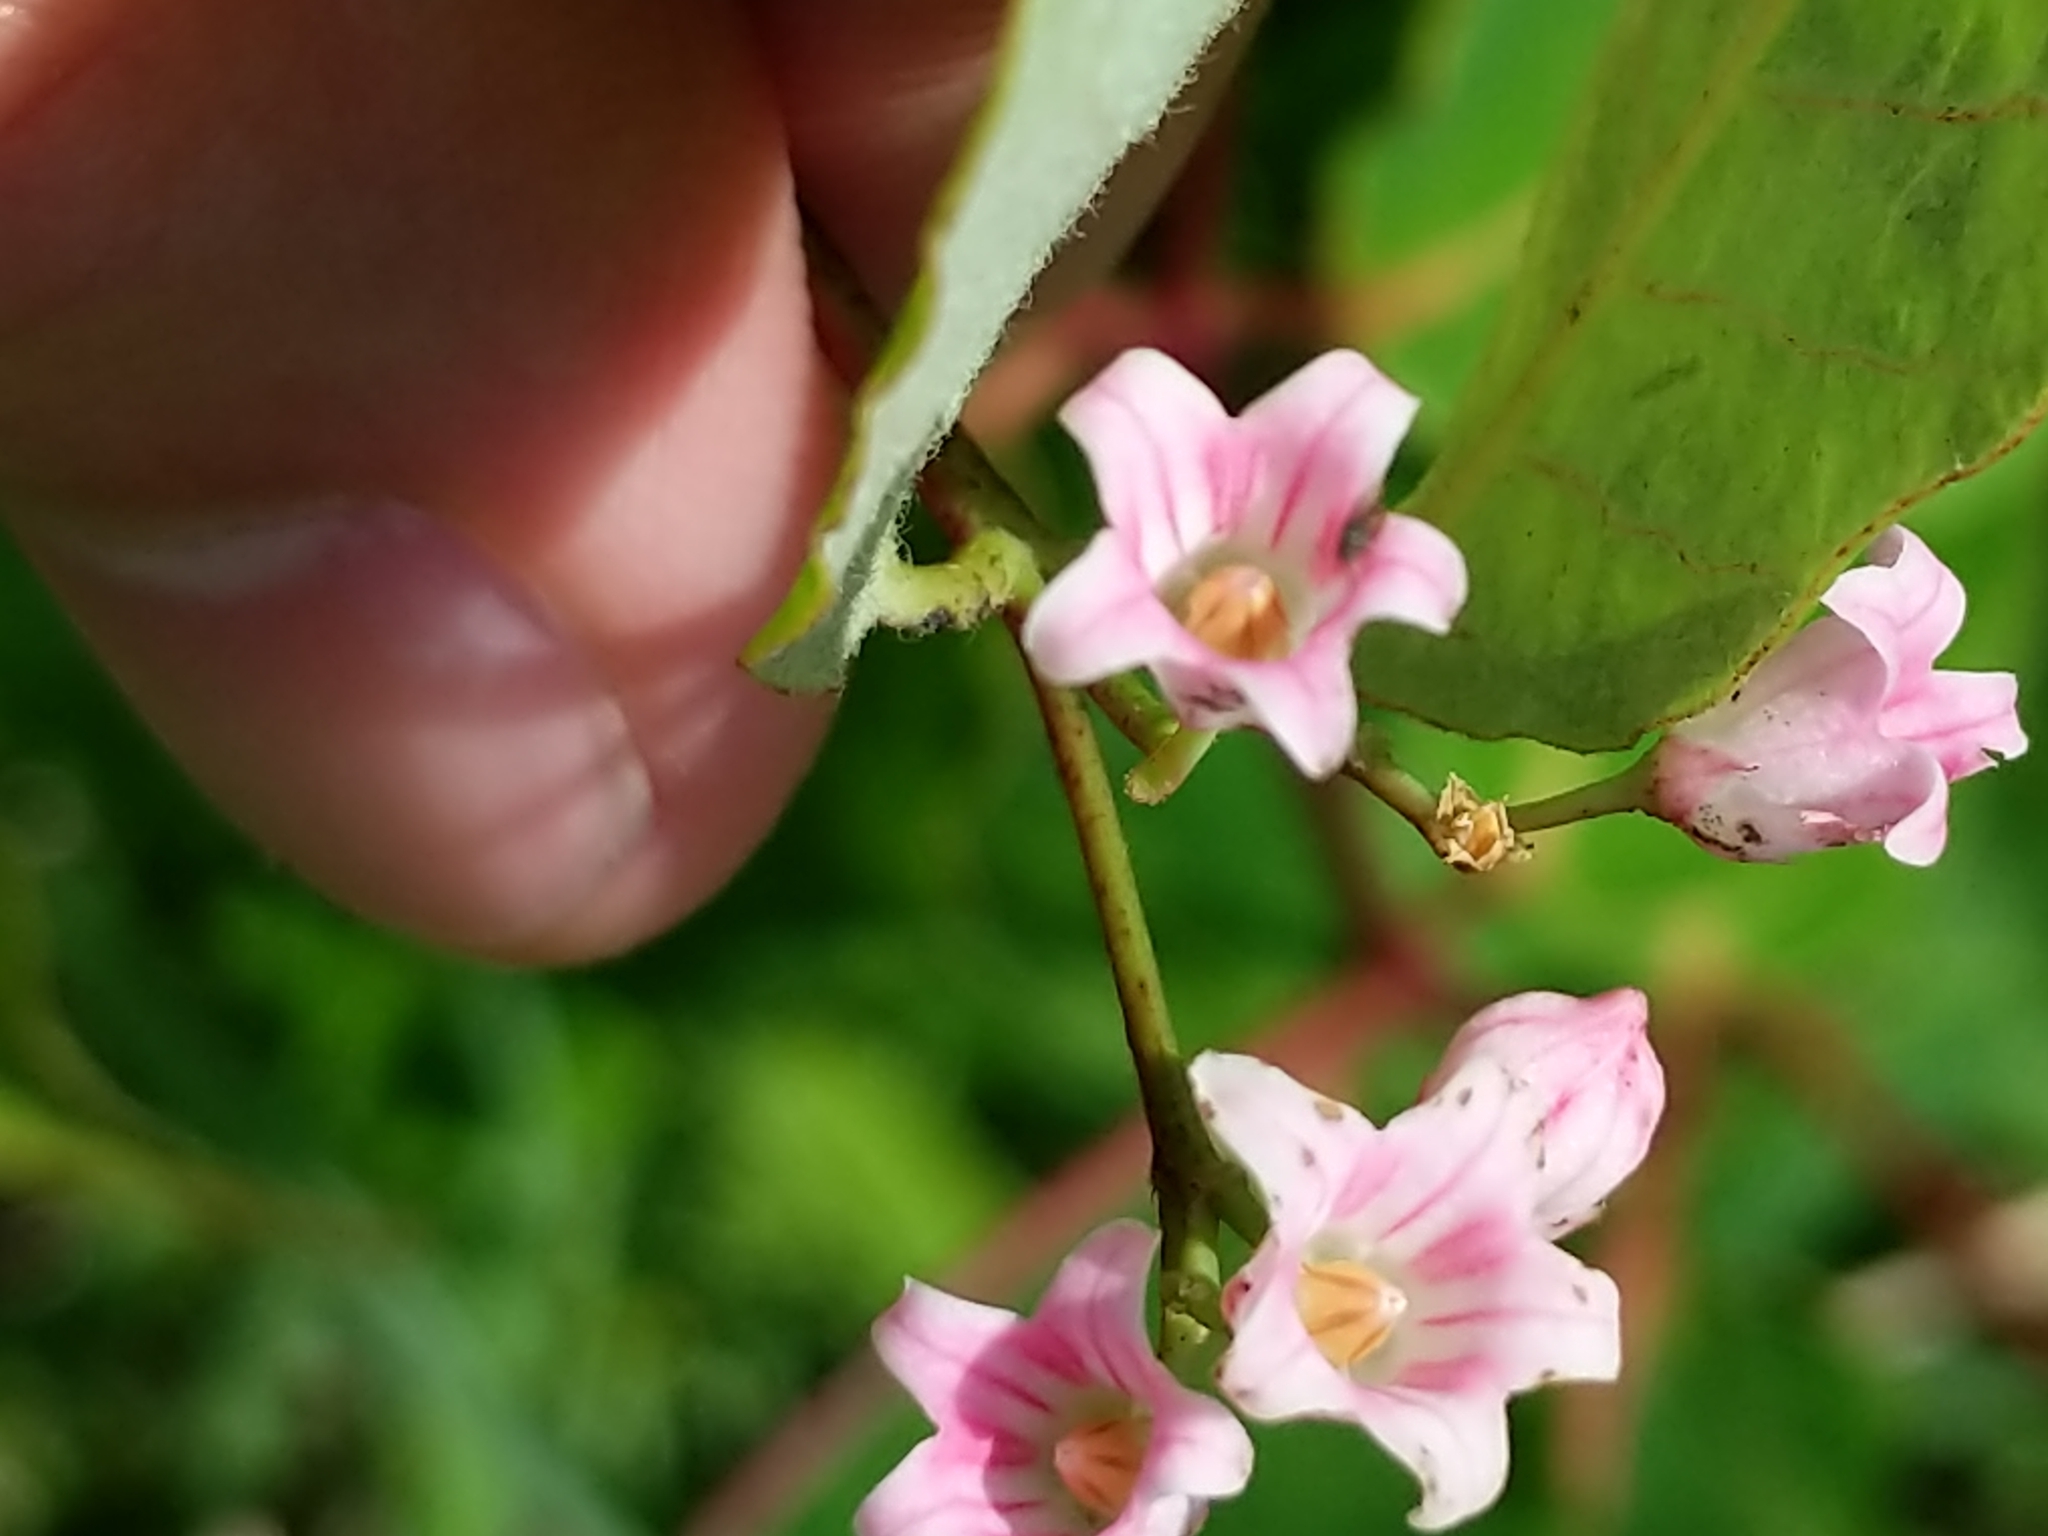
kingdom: Plantae
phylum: Tracheophyta
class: Magnoliopsida
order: Gentianales
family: Apocynaceae
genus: Apocynum
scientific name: Apocynum androsaemifolium
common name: Spreading dogbane
